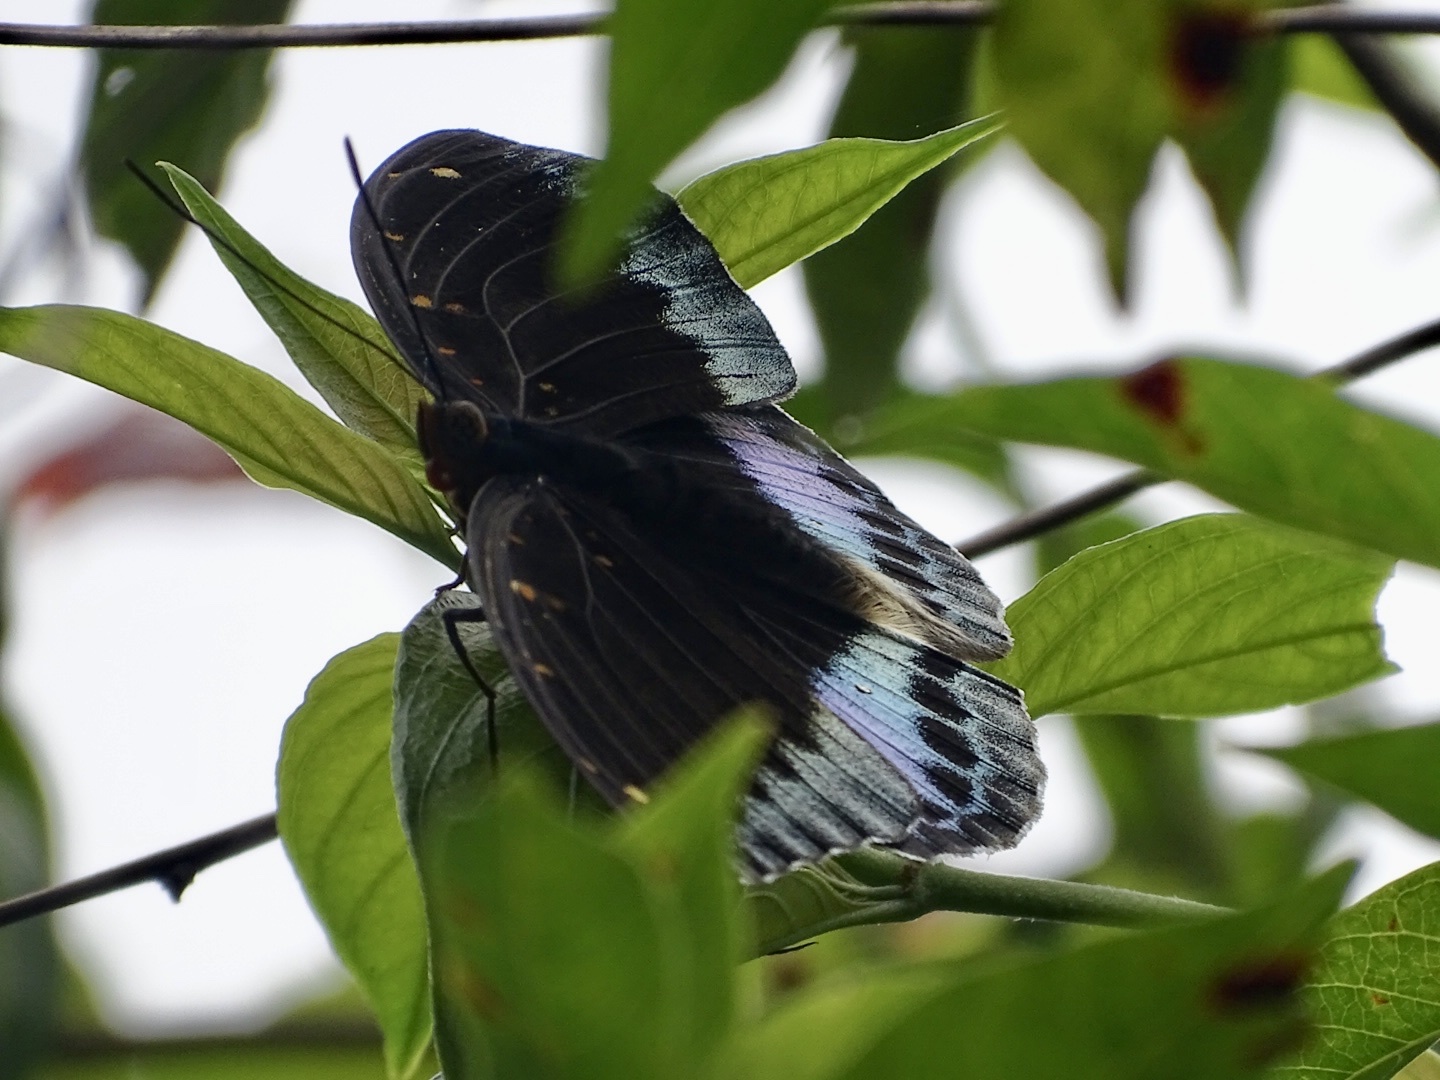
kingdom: Animalia
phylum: Arthropoda
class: Insecta
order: Lepidoptera
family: Nymphalidae
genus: Lexias
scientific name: Lexias pardalis
